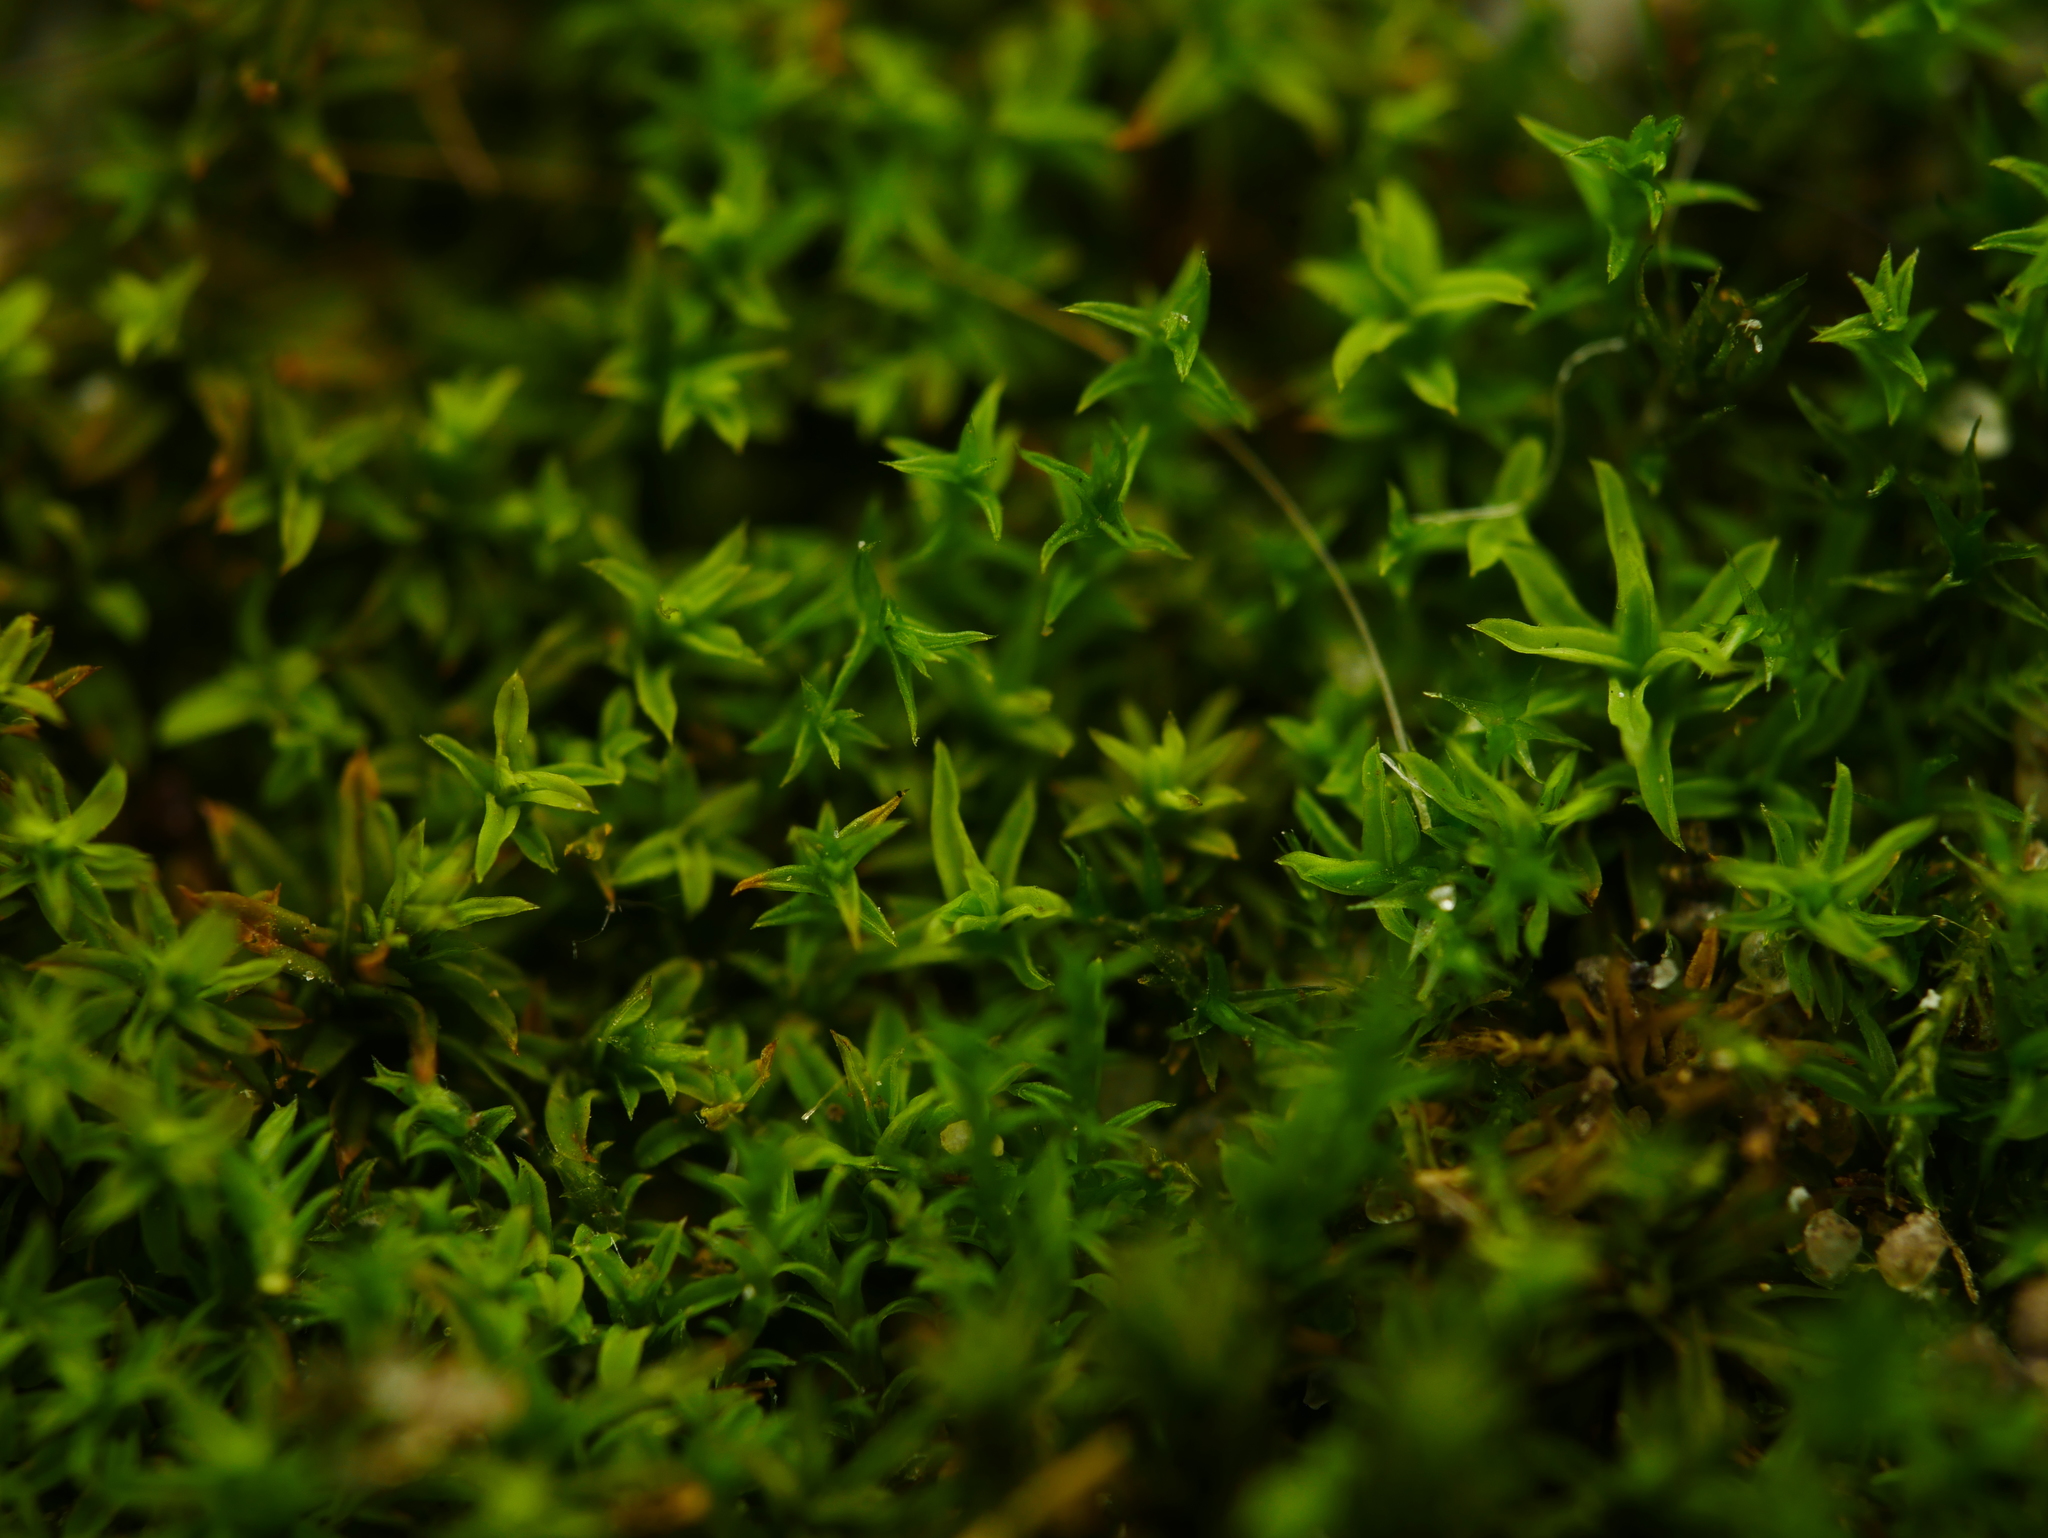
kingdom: Plantae
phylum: Bryophyta
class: Bryopsida
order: Pottiales
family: Pottiaceae
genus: Barbula
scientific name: Barbula unguiculata
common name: Prickly beard moss
